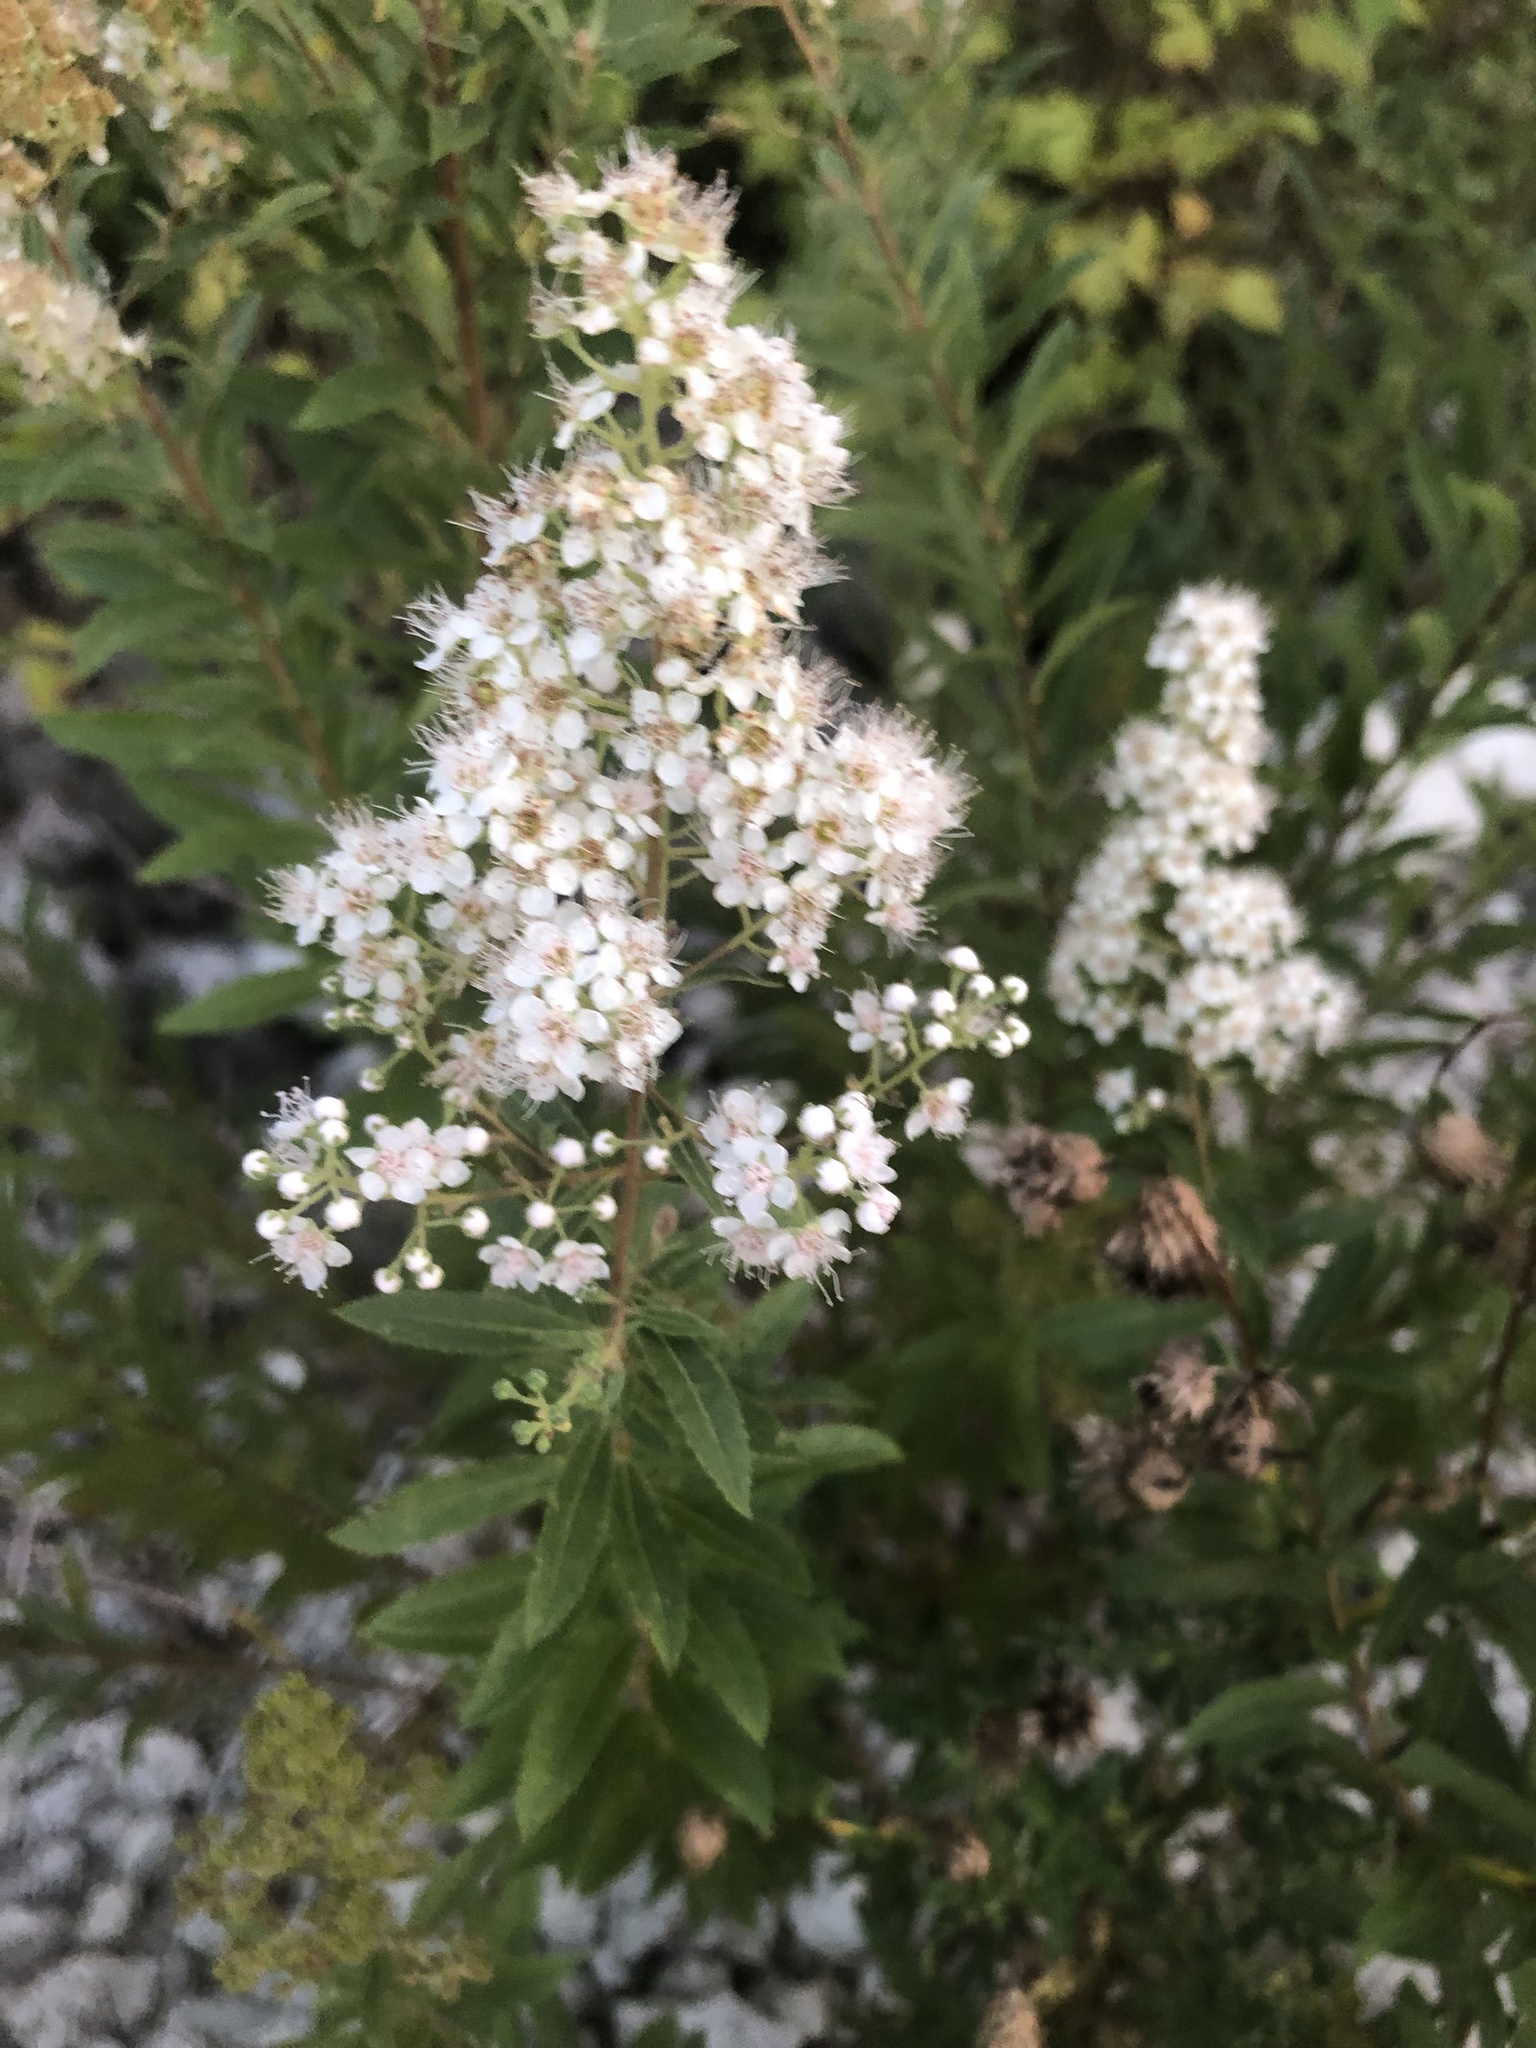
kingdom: Plantae
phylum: Tracheophyta
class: Magnoliopsida
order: Rosales
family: Rosaceae
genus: Spiraea
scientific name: Spiraea alba
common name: Pale bridewort
